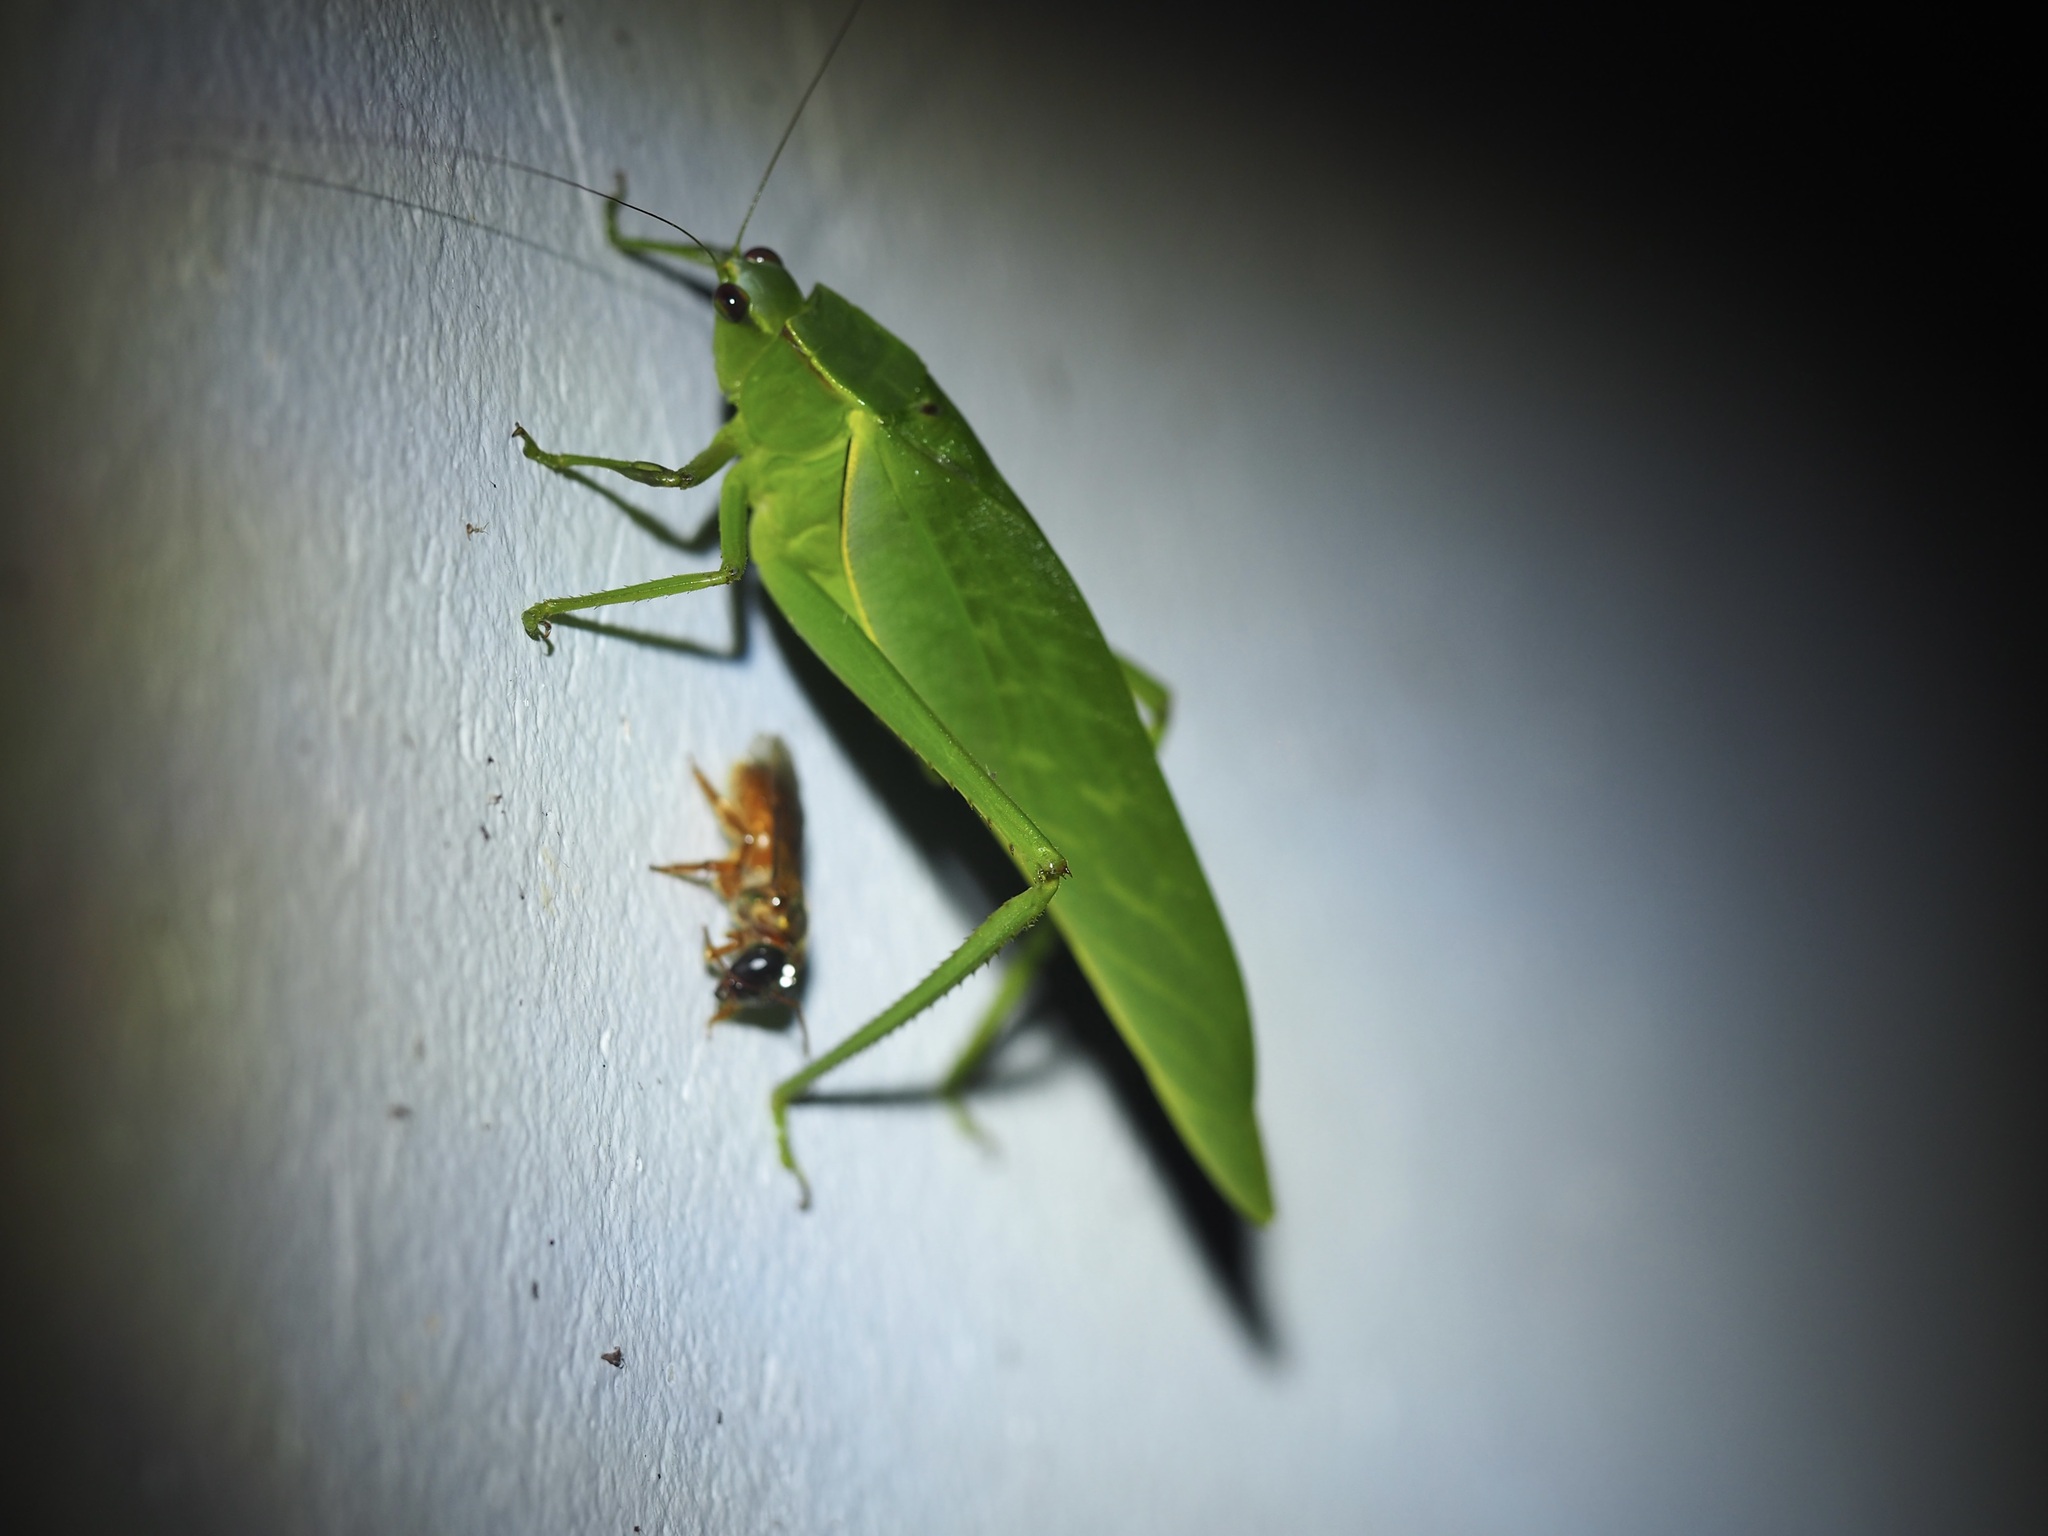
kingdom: Animalia
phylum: Arthropoda
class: Insecta
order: Orthoptera
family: Tettigoniidae
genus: Steirodon
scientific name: Steirodon degeeri
